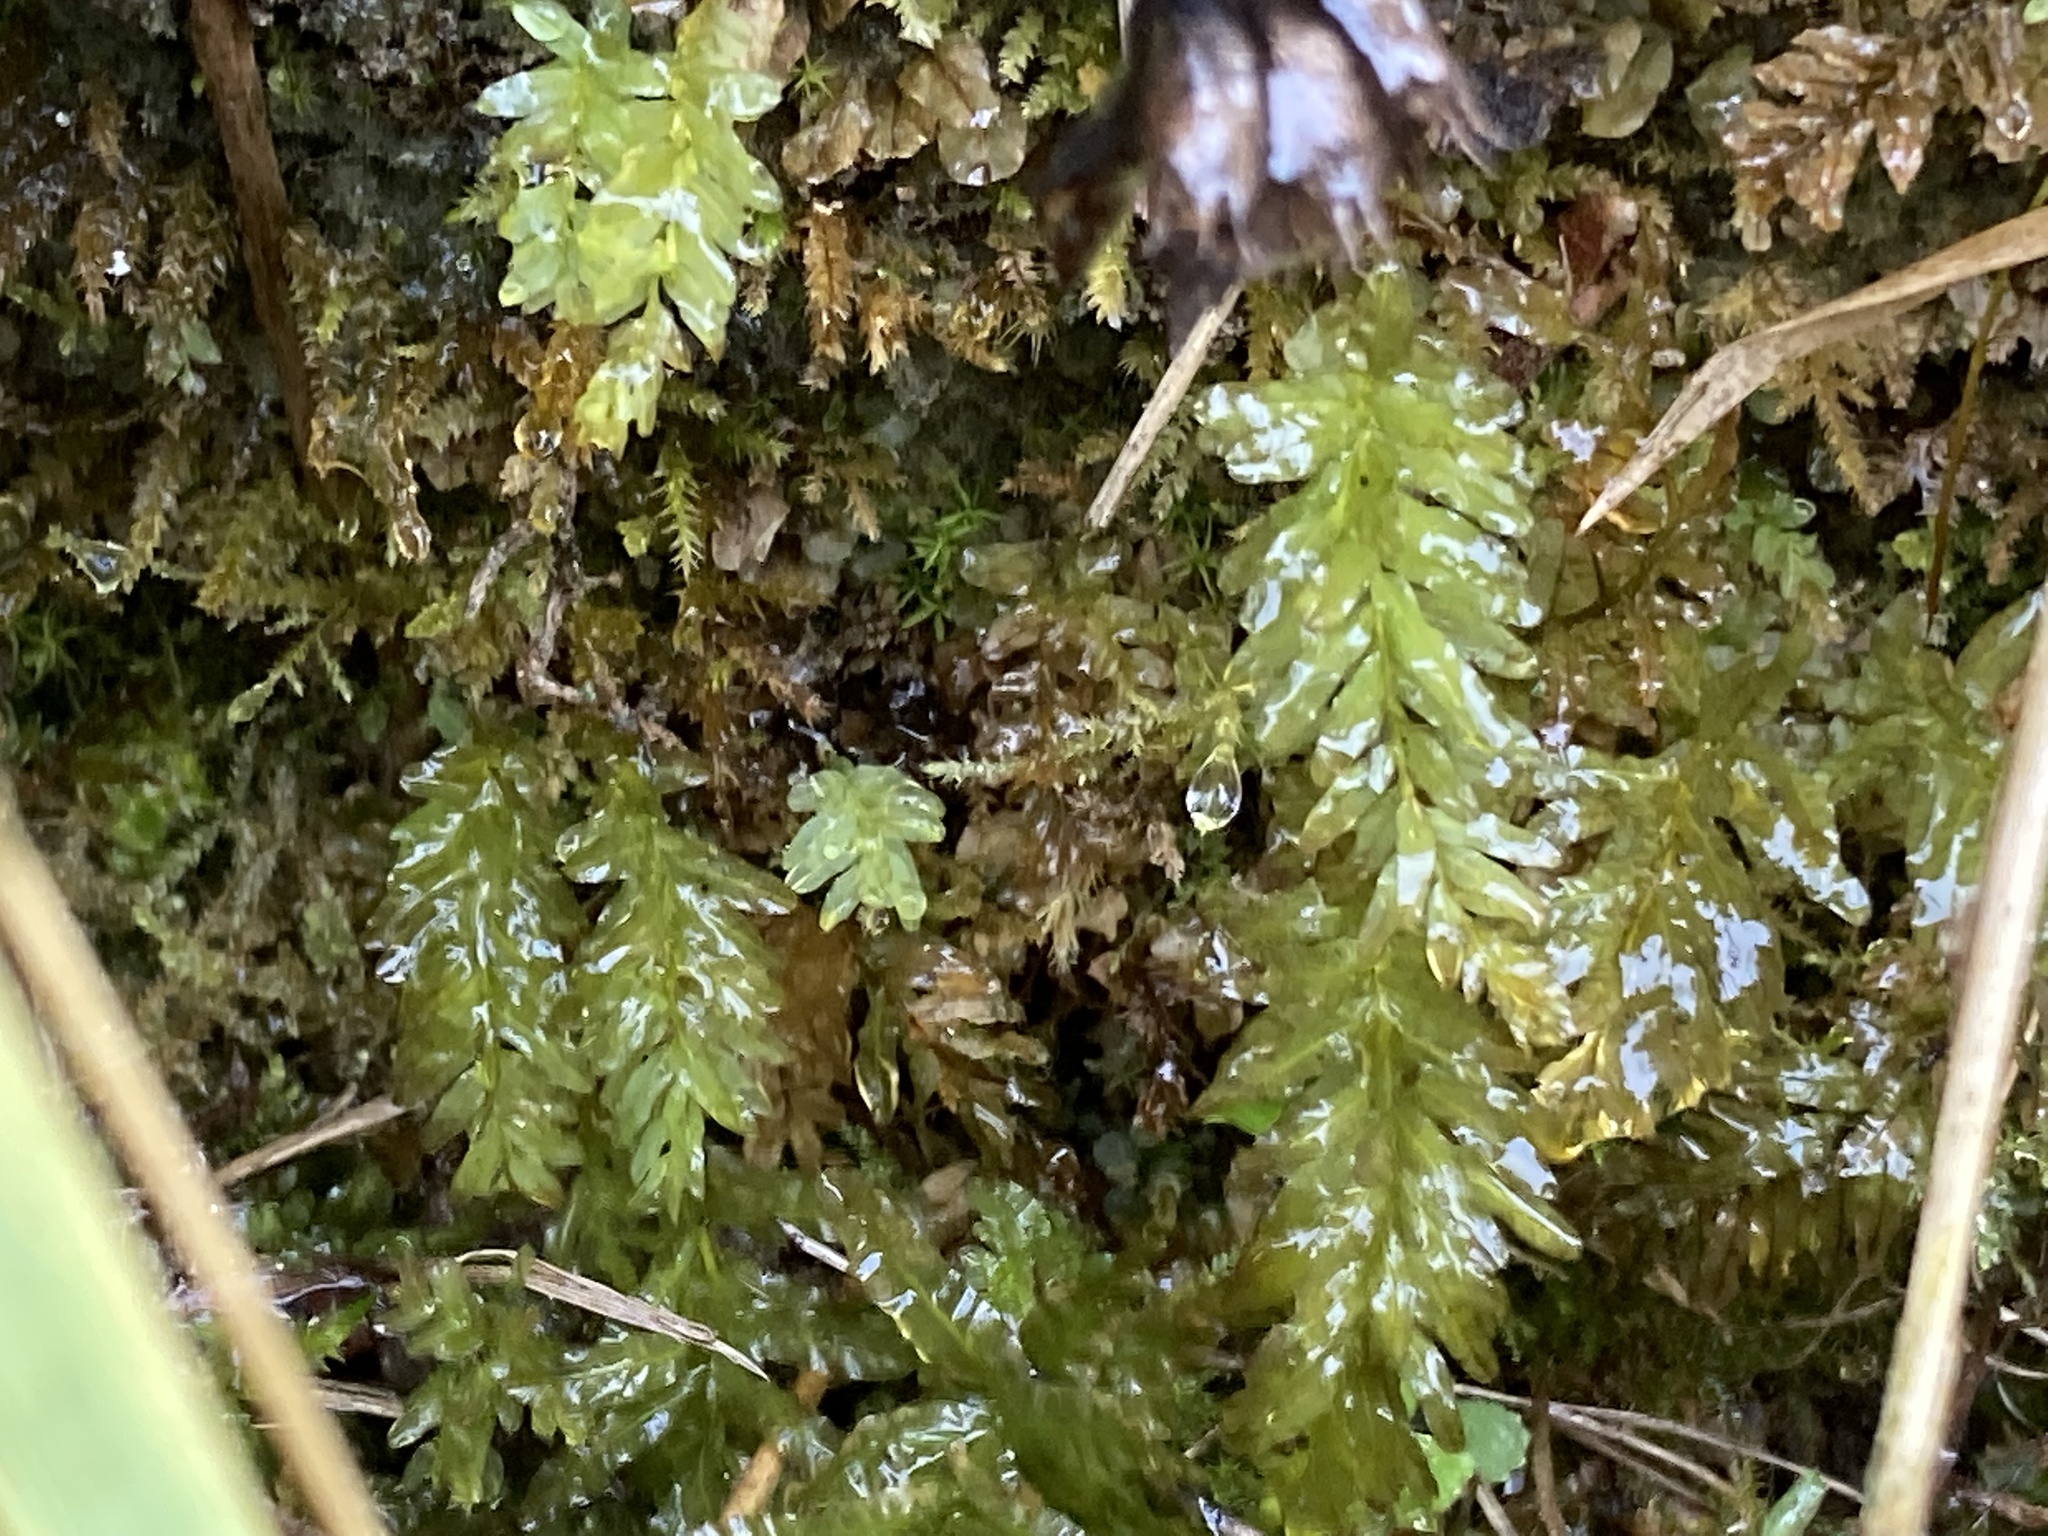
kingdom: Plantae
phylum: Bryophyta
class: Bryopsida
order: Bryales
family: Mniaceae
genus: Plagiomnium
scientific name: Plagiomnium undulatum
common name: Hart's-tongue thyme-moss
